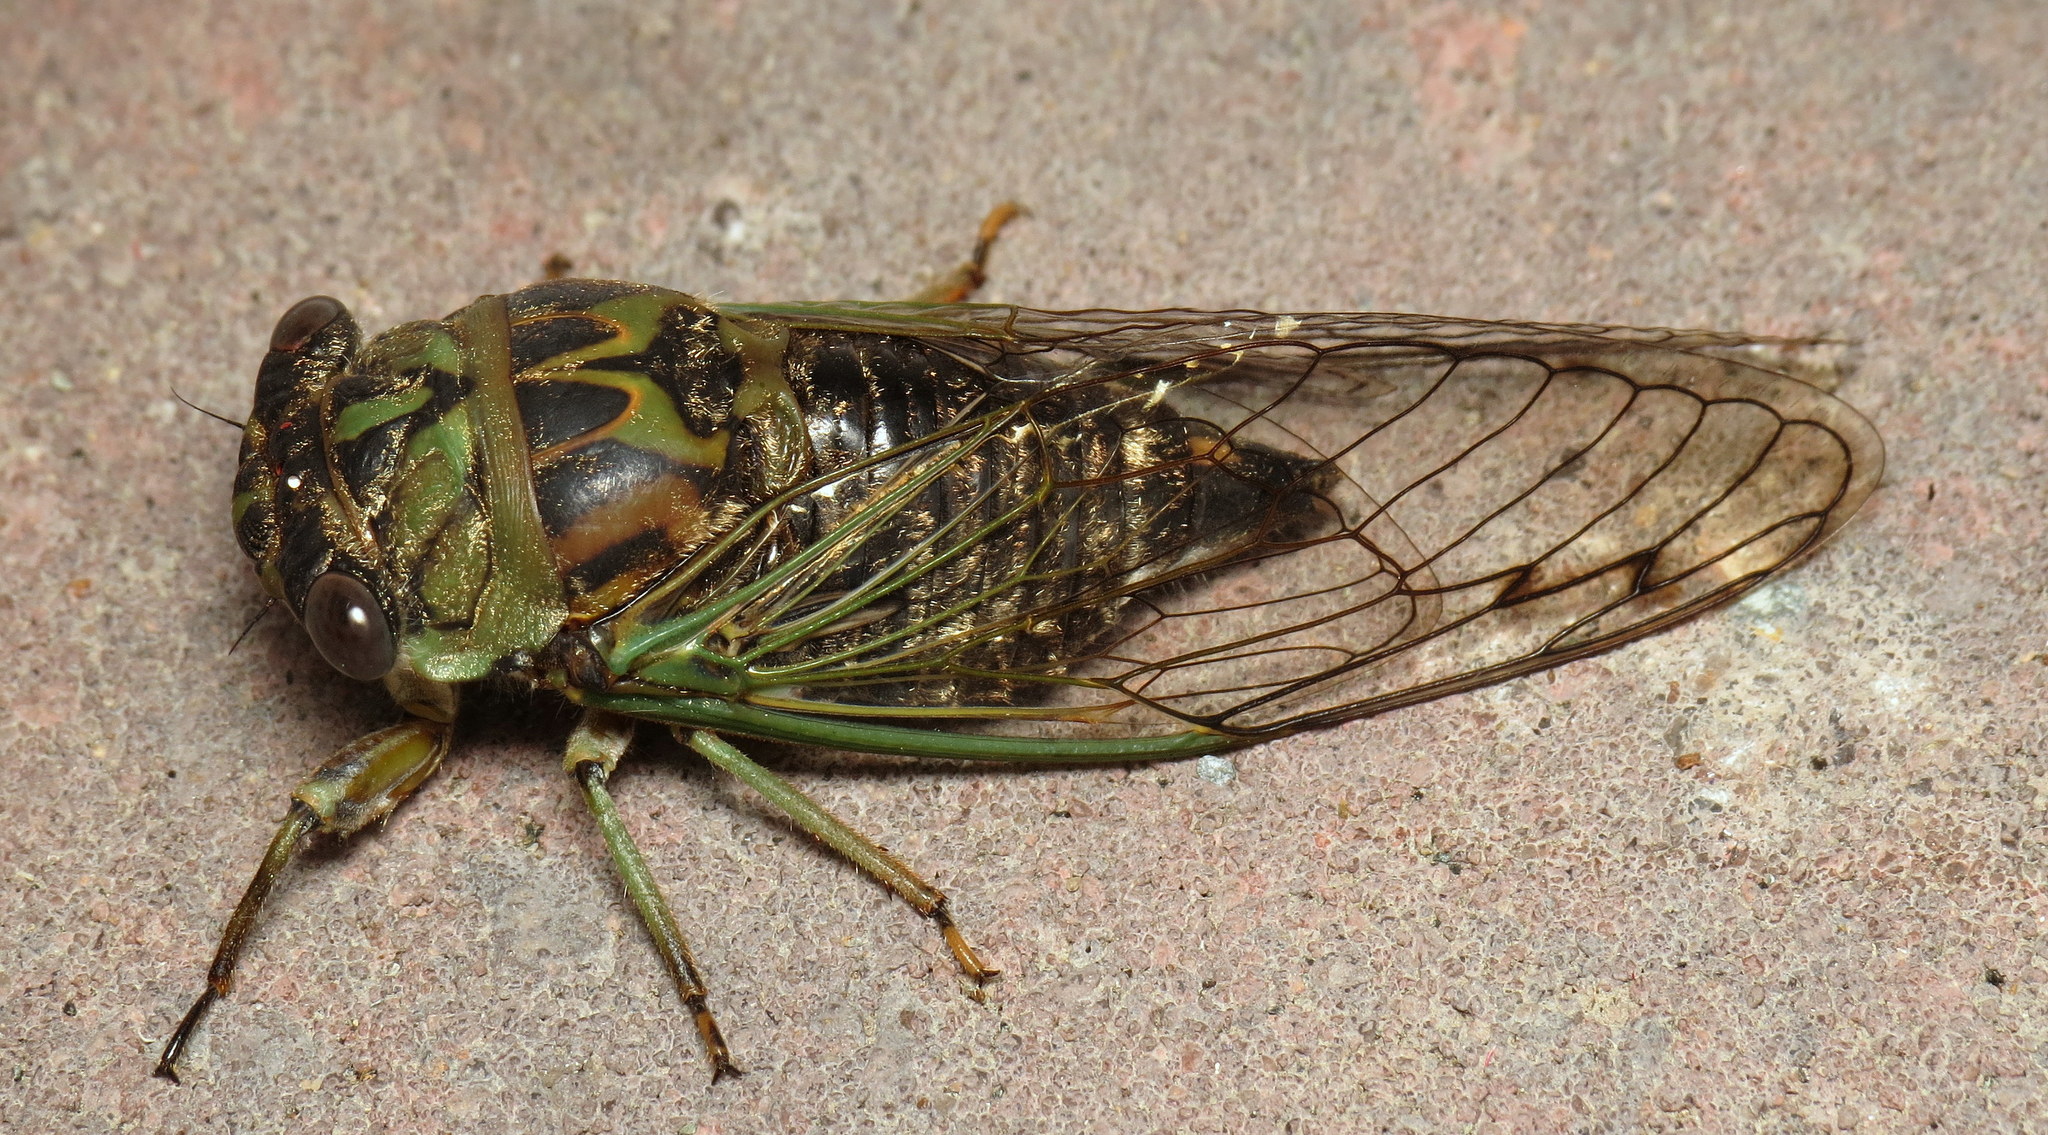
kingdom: Animalia
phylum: Arthropoda
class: Insecta
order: Hemiptera
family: Cicadidae
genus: Neotibicen
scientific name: Neotibicen canicularis
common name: God-day cicada
